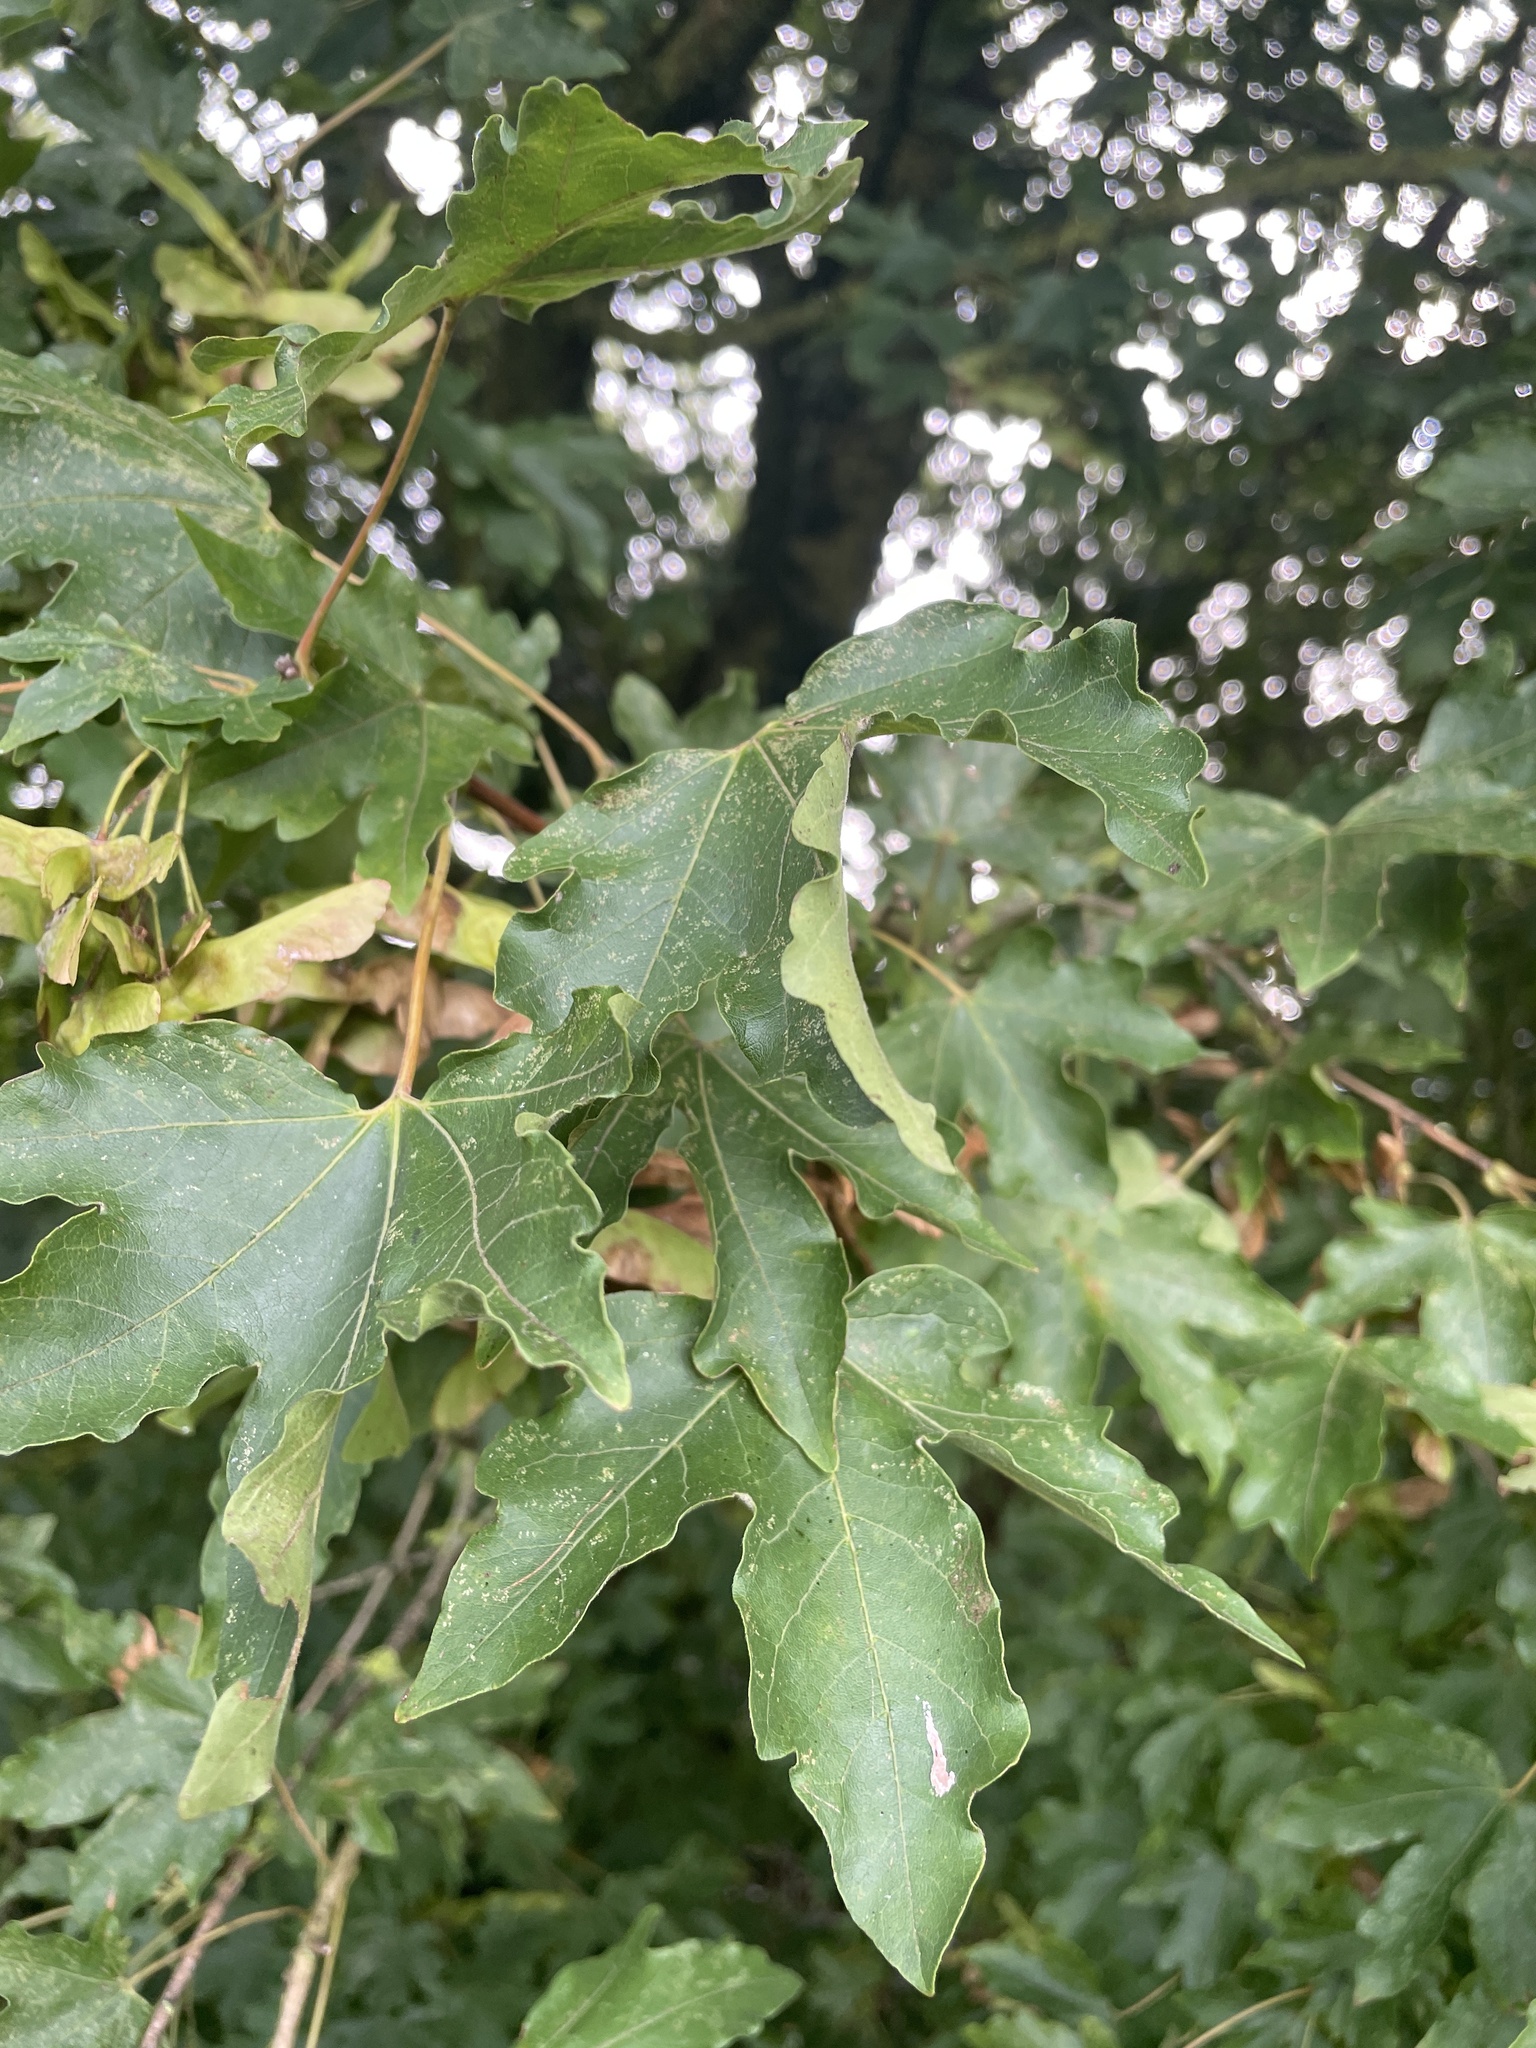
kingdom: Plantae
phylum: Tracheophyta
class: Magnoliopsida
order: Sapindales
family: Sapindaceae
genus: Acer
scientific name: Acer campestre
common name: Field maple
